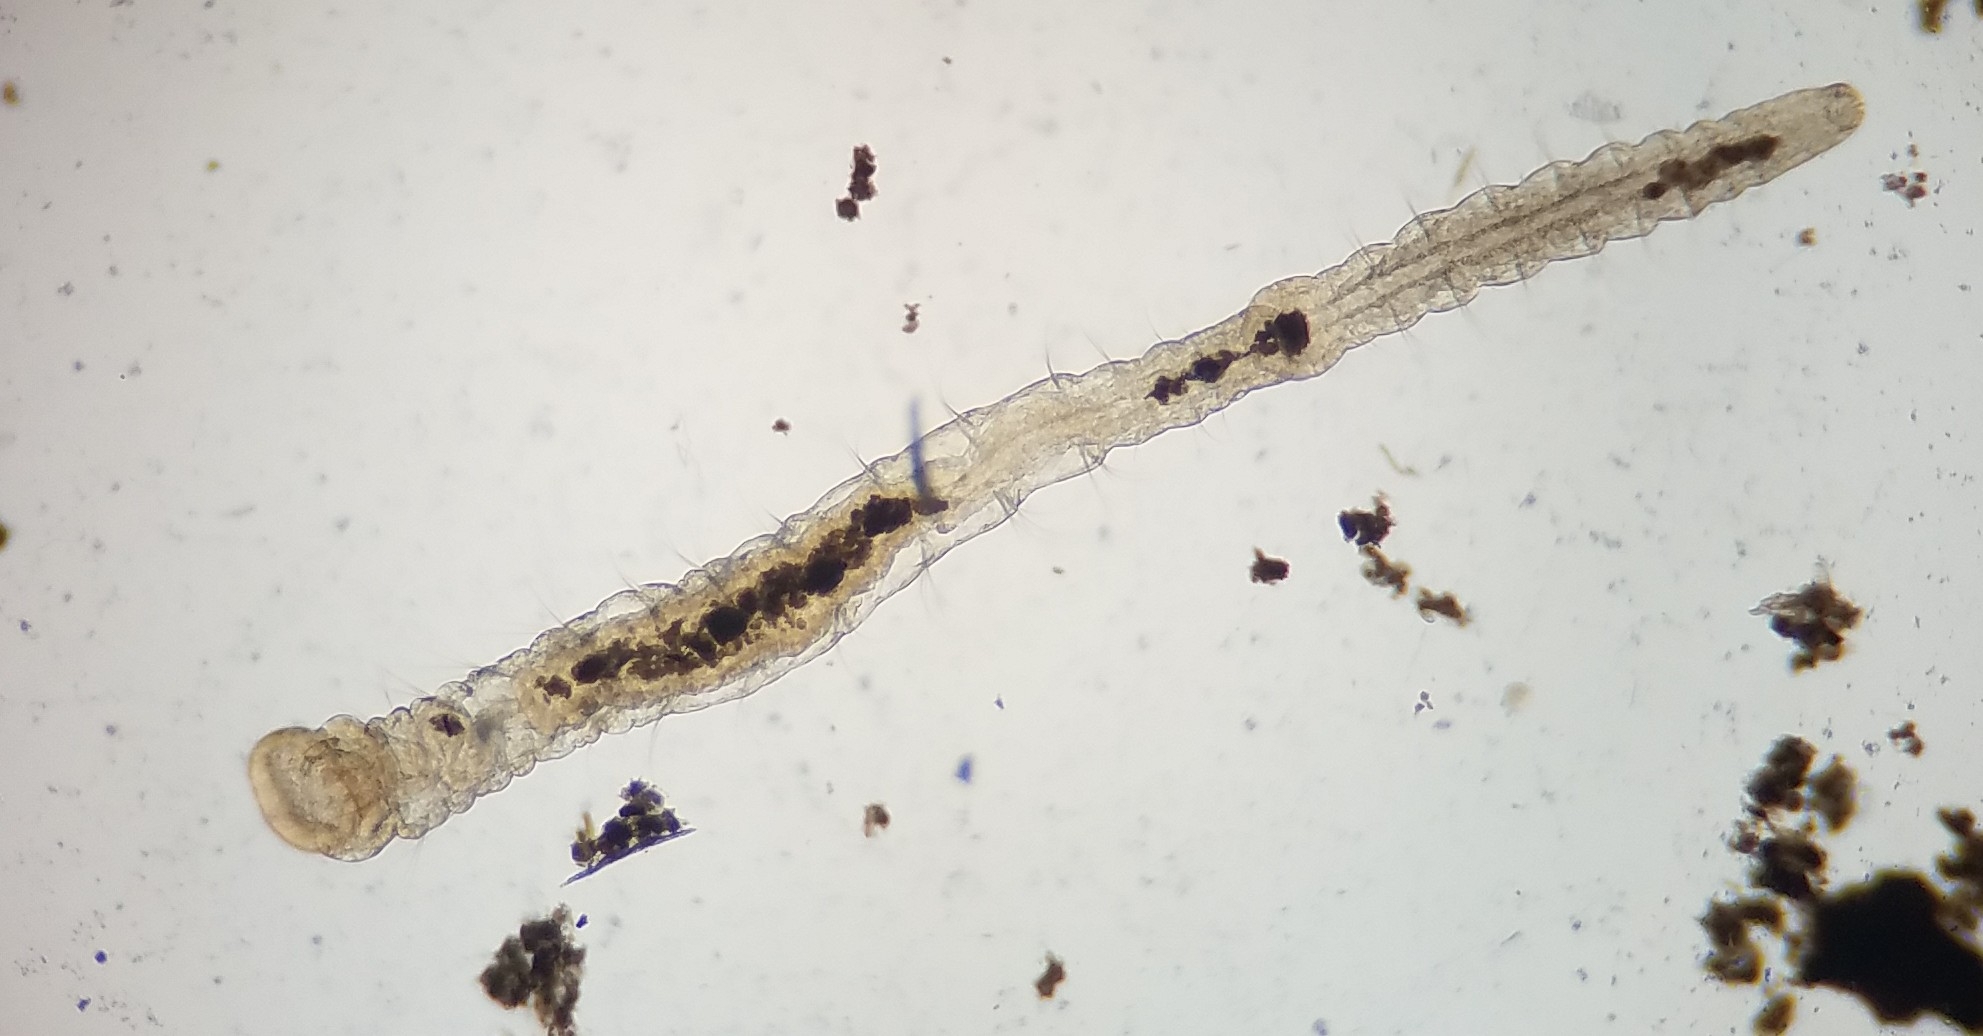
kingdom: Animalia
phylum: Annelida
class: Polychaeta
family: Aeolosomatidae
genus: Aeolosoma
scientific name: Aeolosoma hemprichii
